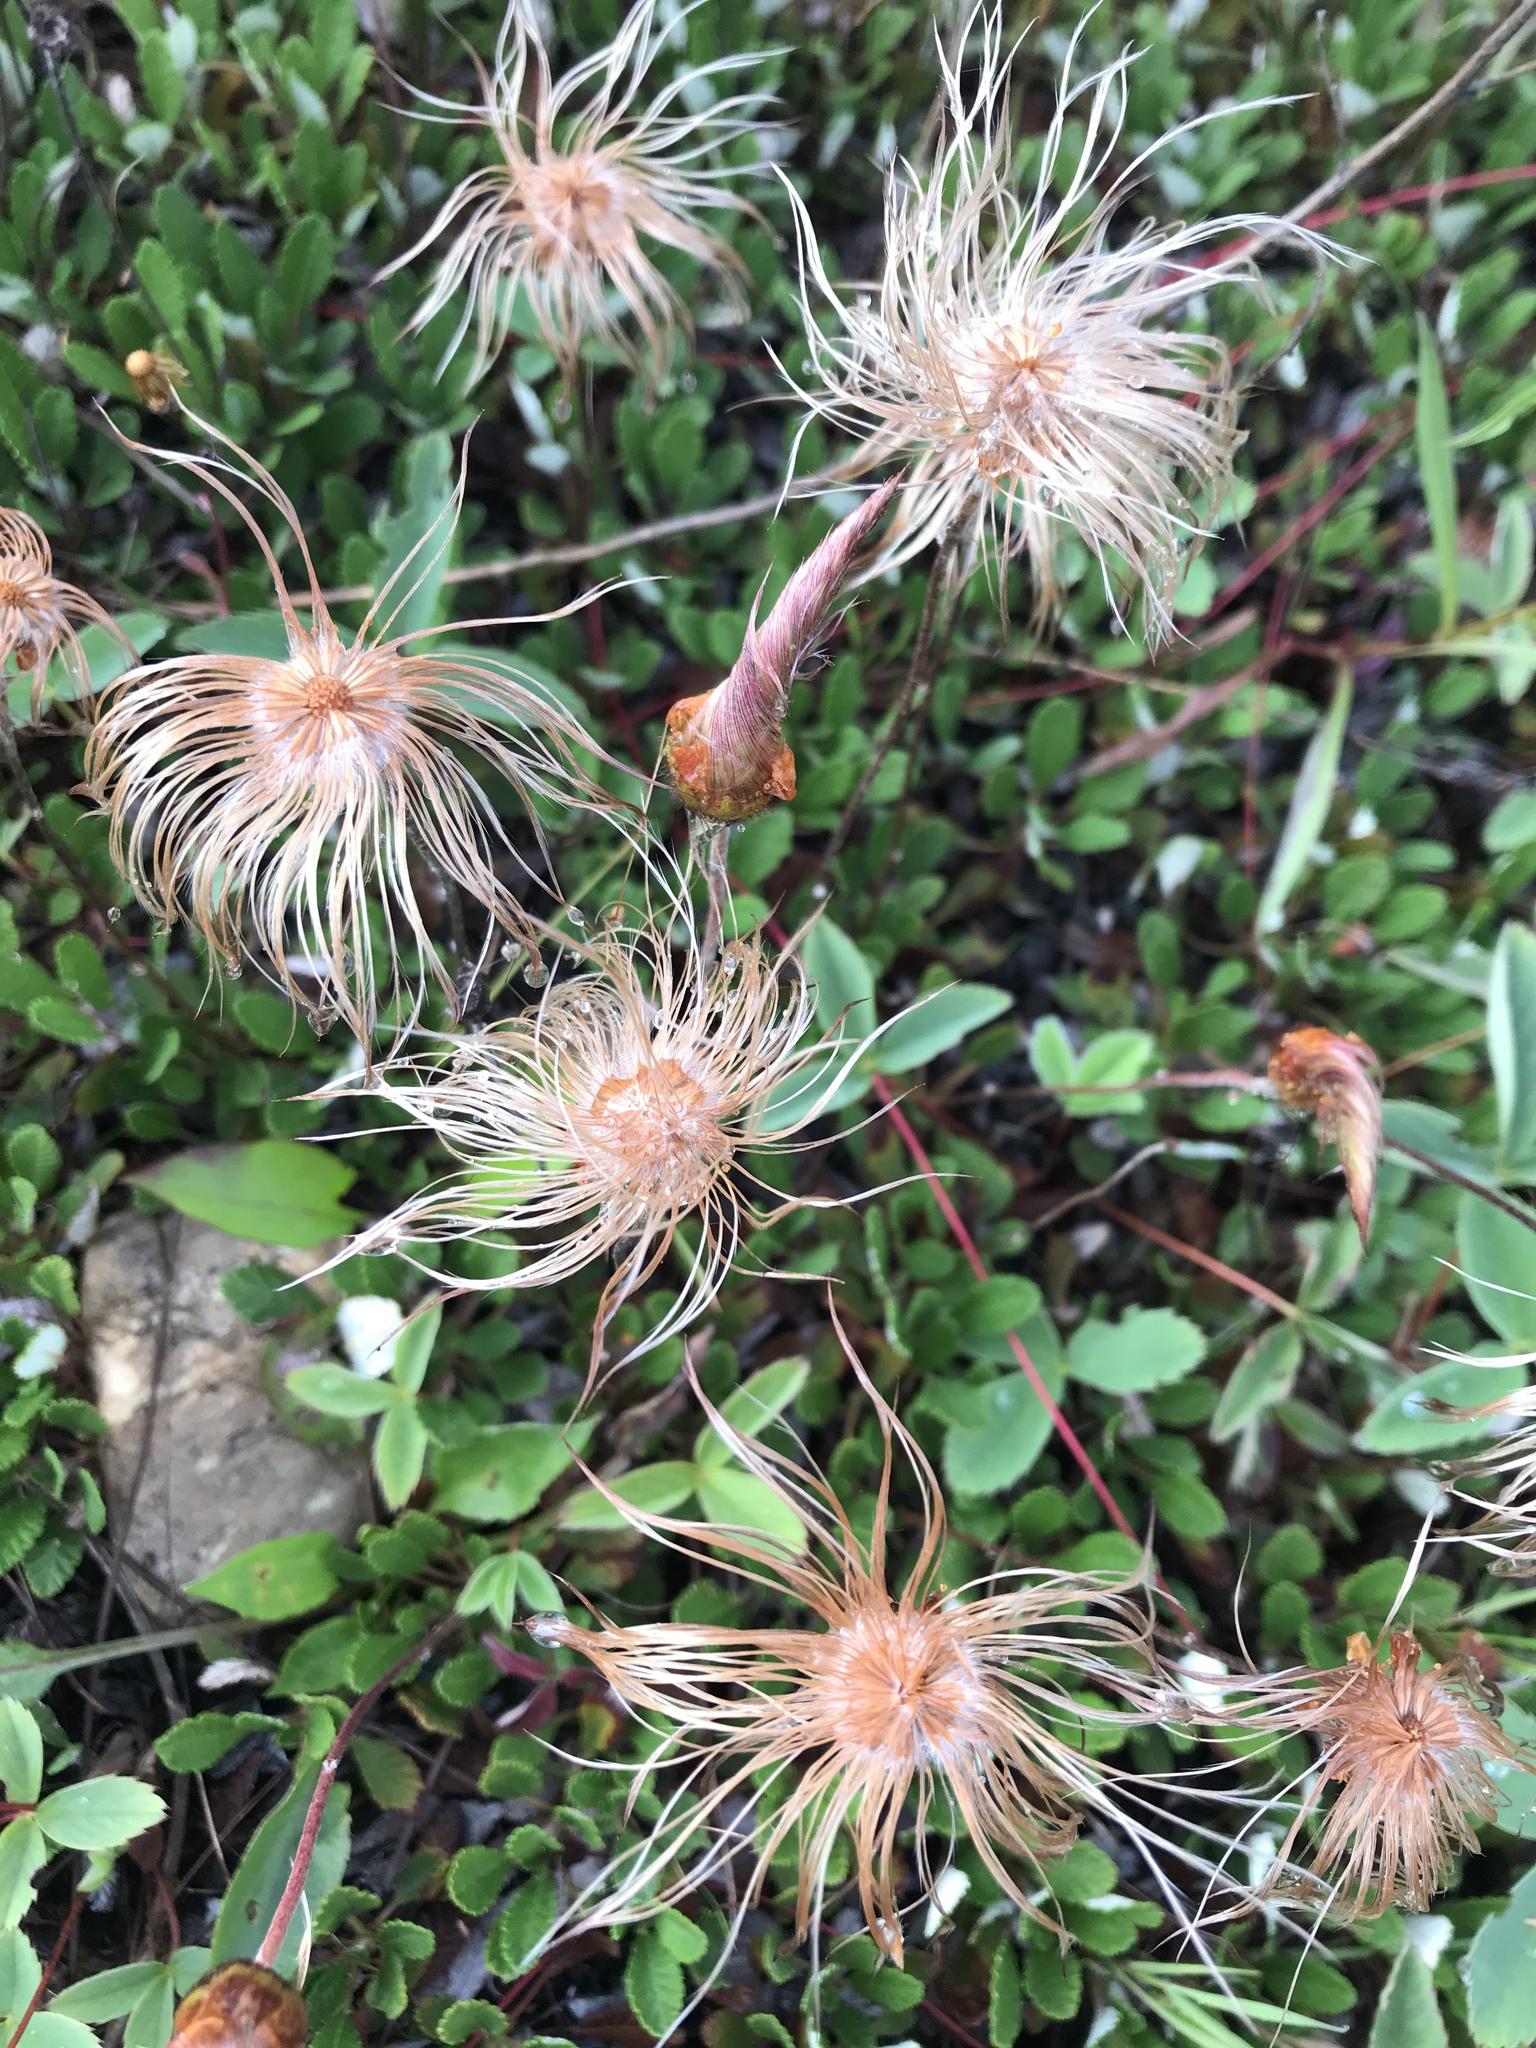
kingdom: Plantae
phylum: Tracheophyta
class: Magnoliopsida
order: Rosales
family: Rosaceae
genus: Dryas
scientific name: Dryas drummondii
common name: Drummond's dryad
